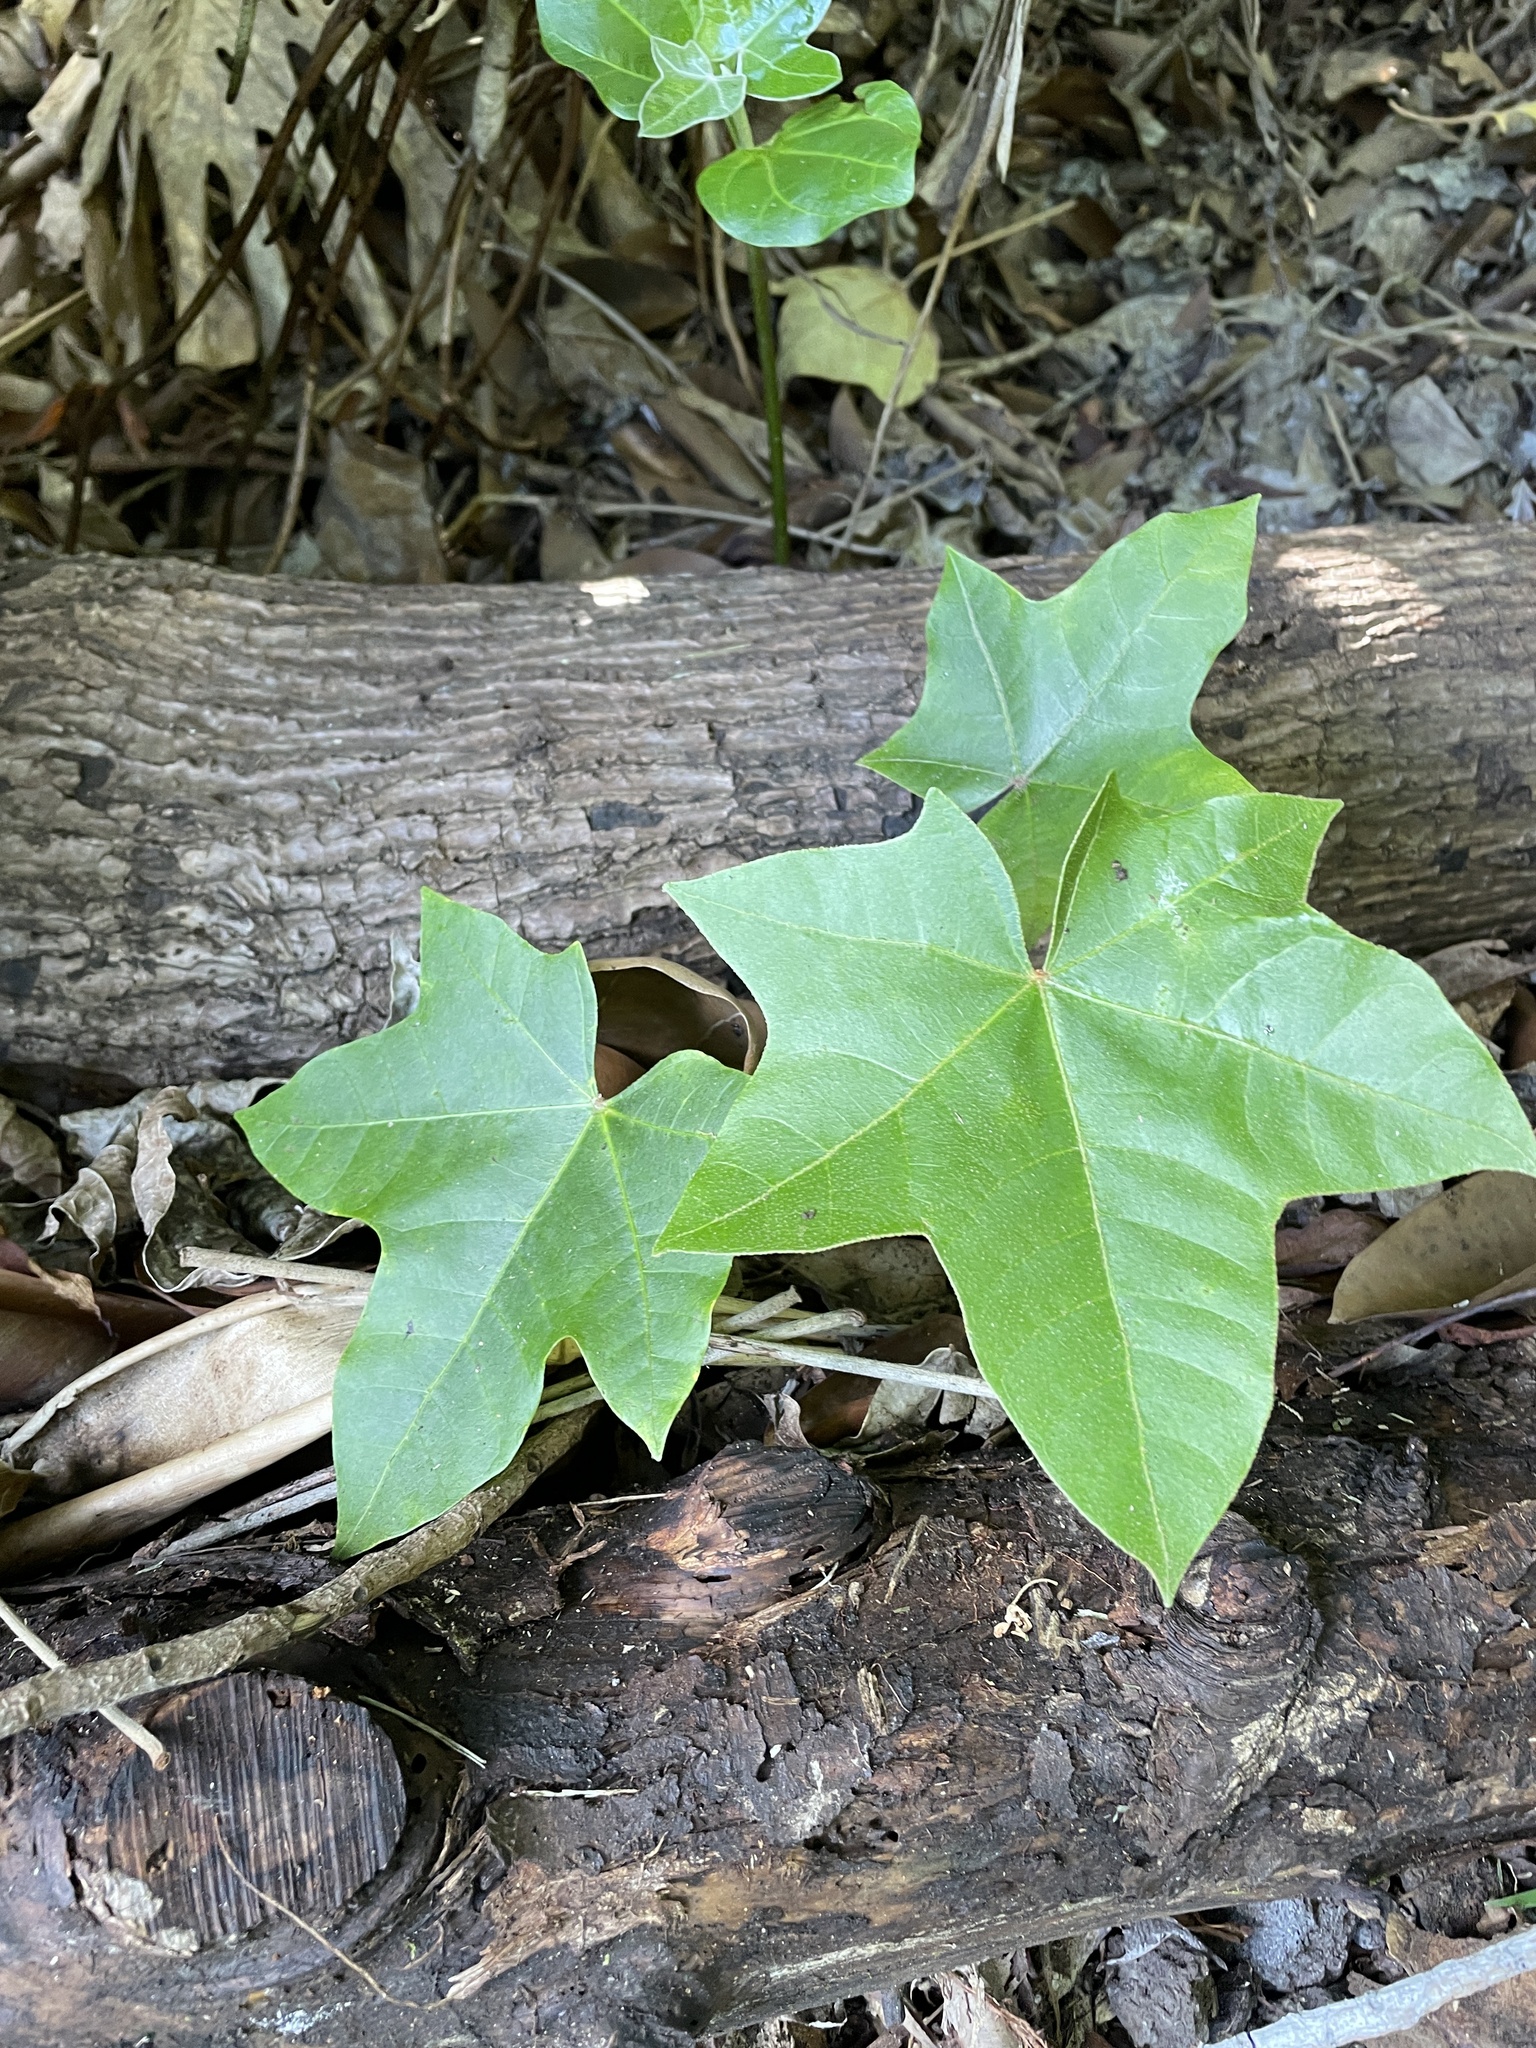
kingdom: Plantae
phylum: Tracheophyta
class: Magnoliopsida
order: Malpighiales
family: Euphorbiaceae
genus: Aleurites
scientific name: Aleurites moluccanus
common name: Candlenut tree
